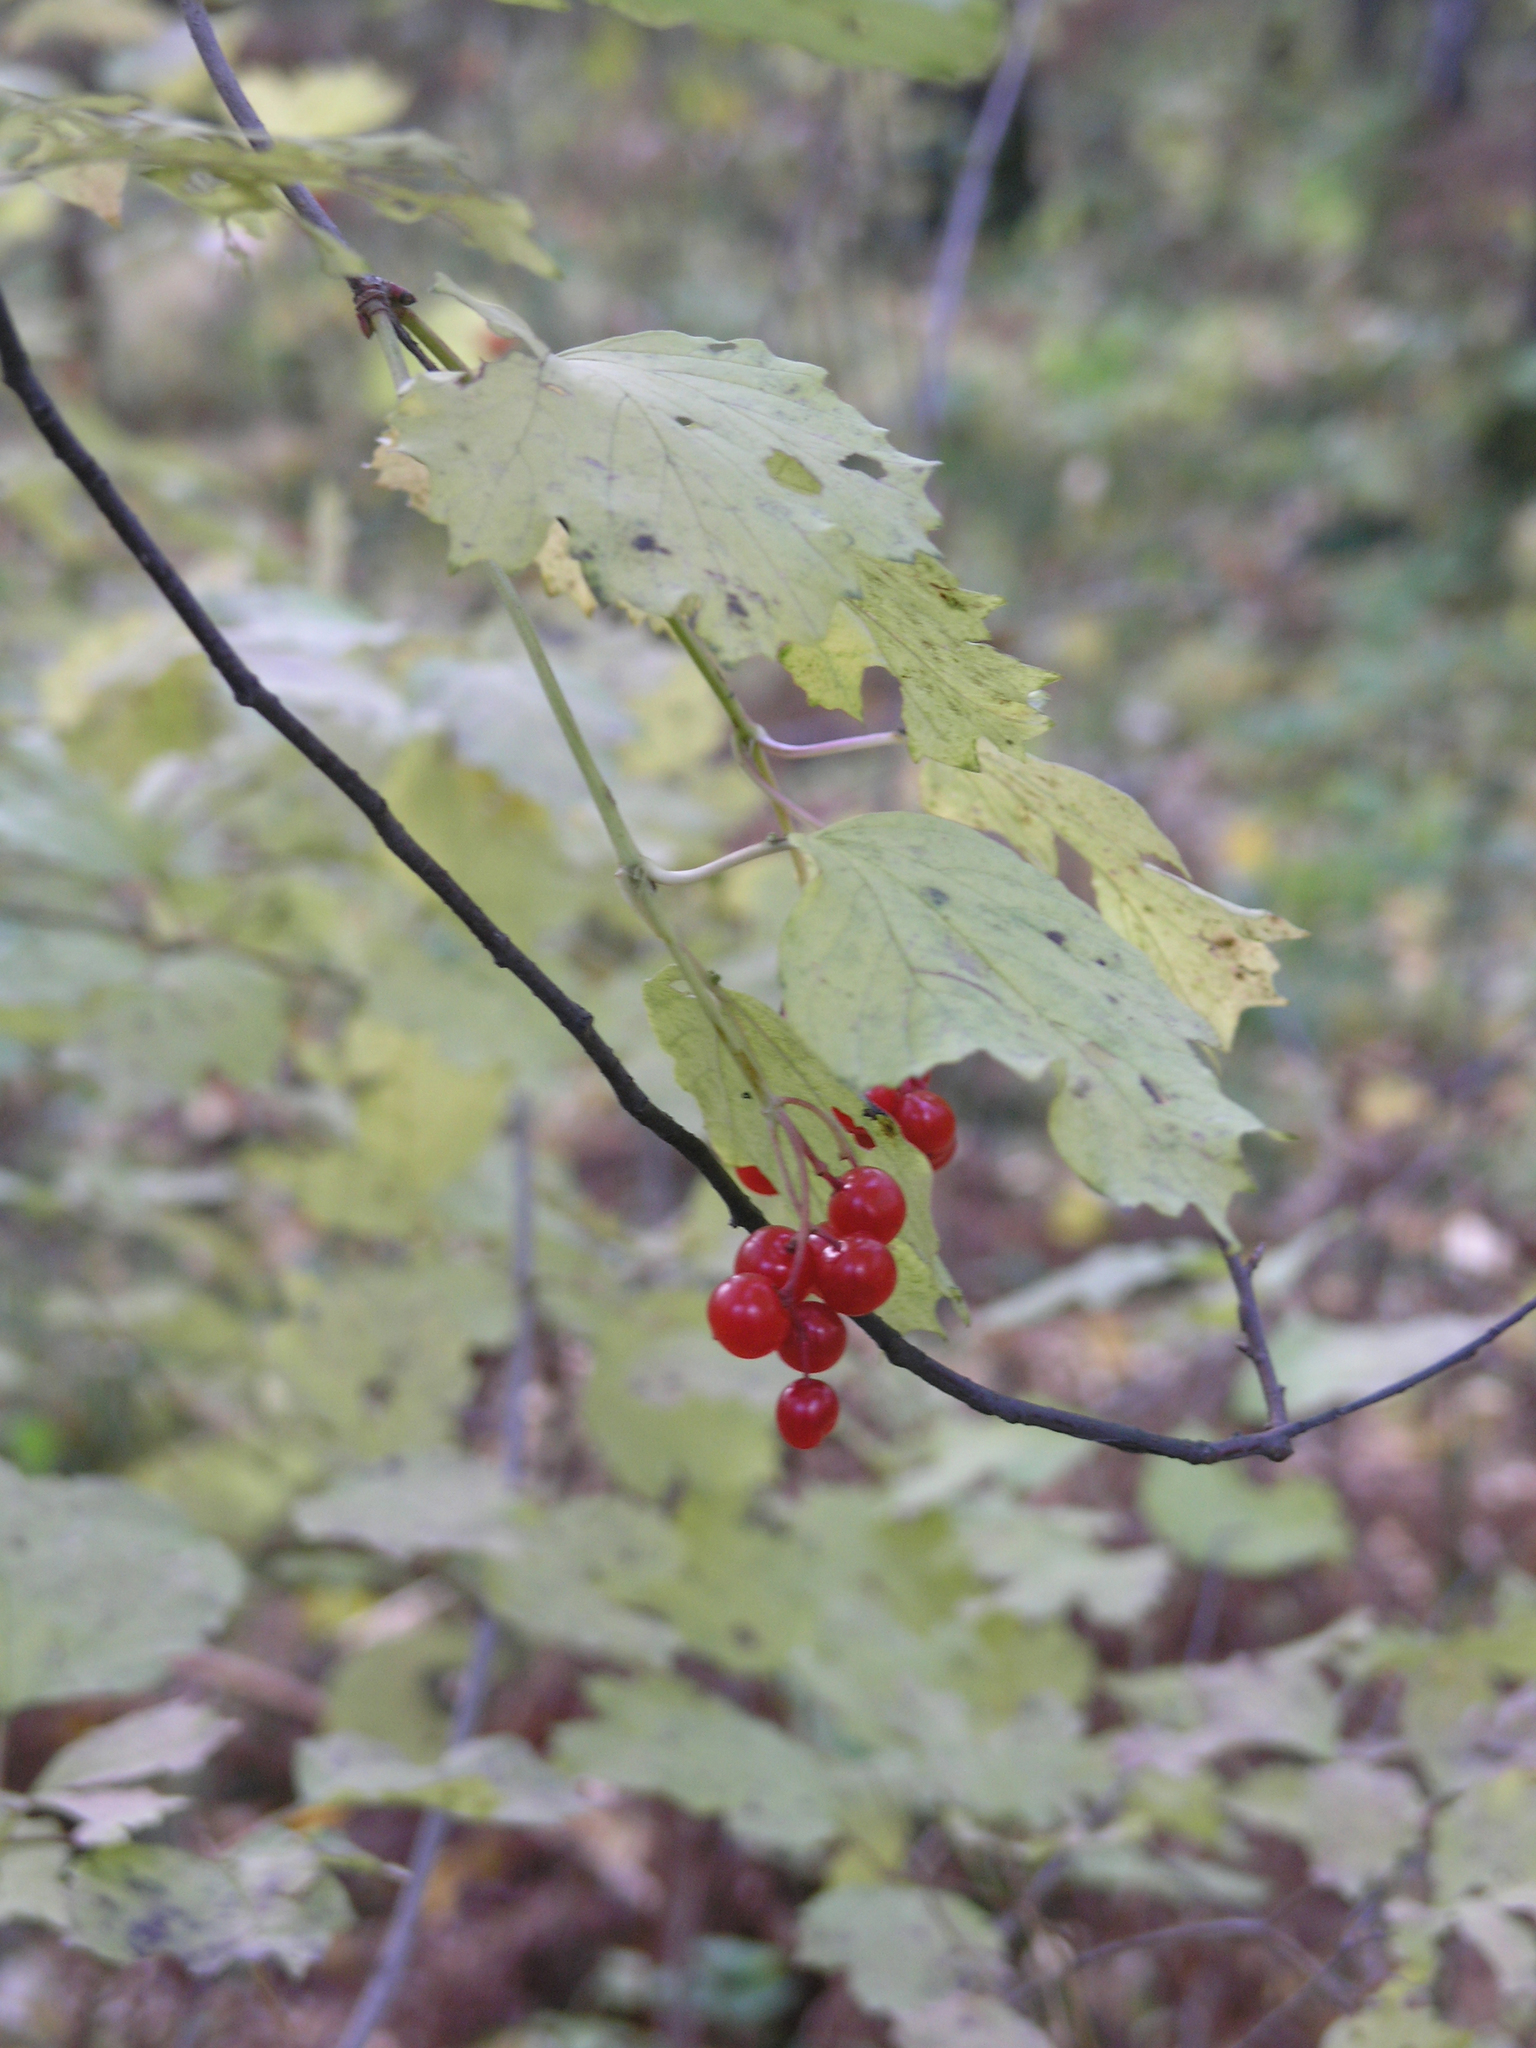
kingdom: Plantae
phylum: Tracheophyta
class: Magnoliopsida
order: Dipsacales
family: Viburnaceae
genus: Viburnum
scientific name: Viburnum opulus
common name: Guelder-rose
